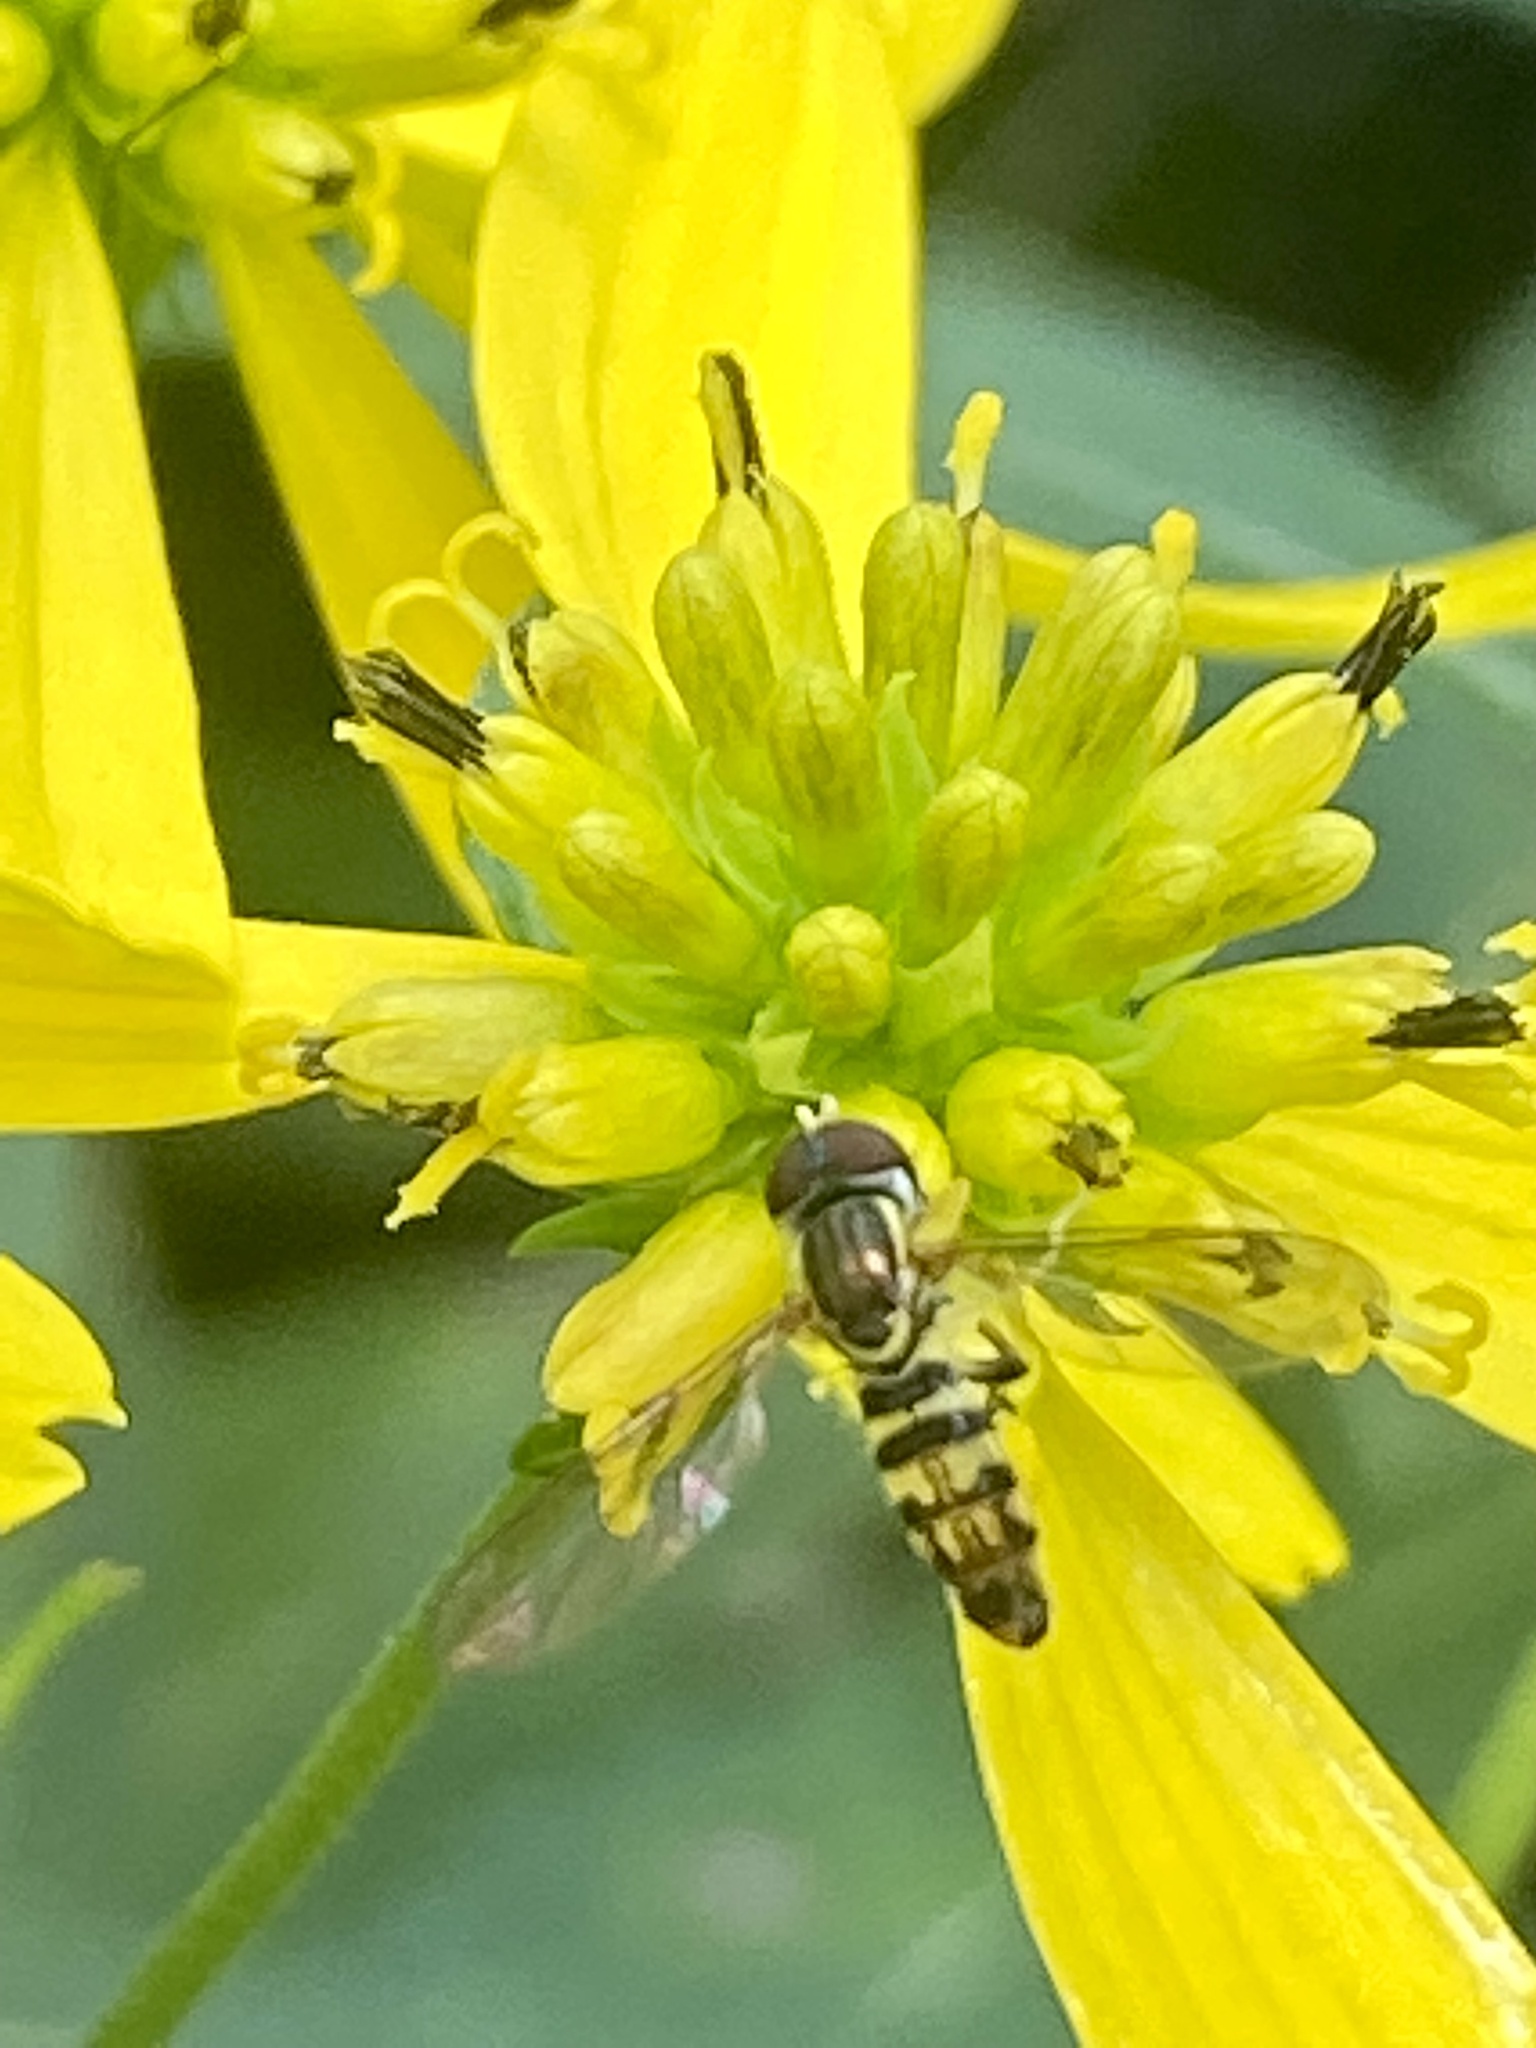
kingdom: Animalia
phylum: Arthropoda
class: Insecta
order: Diptera
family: Syrphidae
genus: Toxomerus
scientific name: Toxomerus geminatus
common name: Eastern calligrapher
